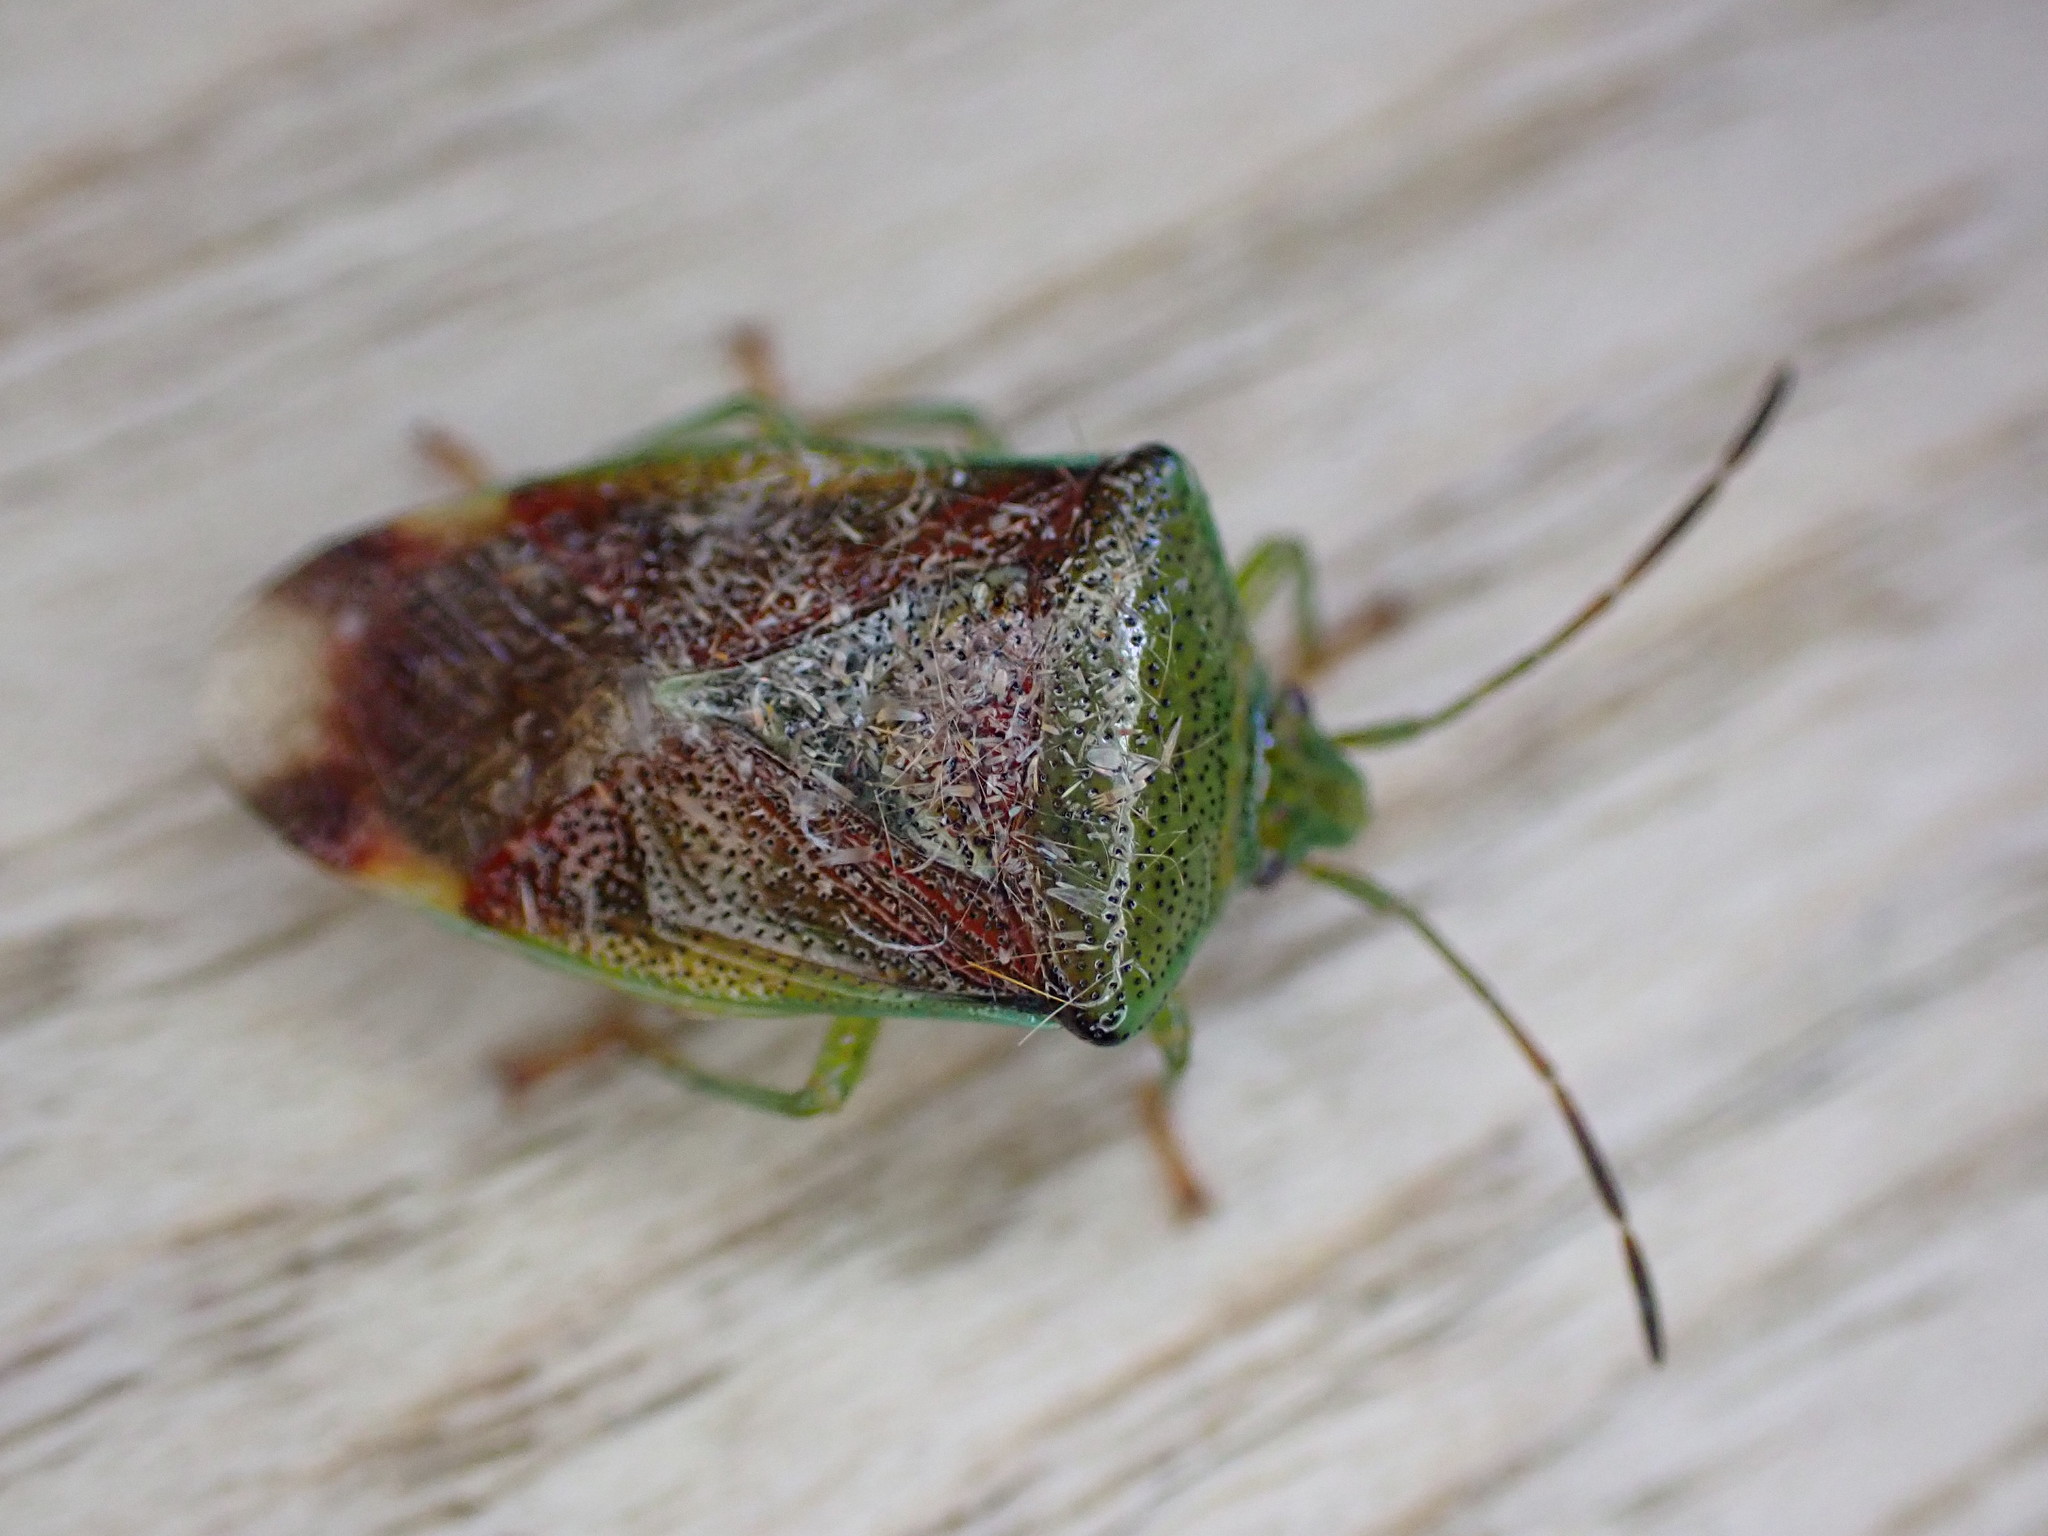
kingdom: Animalia
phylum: Arthropoda
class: Insecta
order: Hemiptera
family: Acanthosomatidae
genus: Elasmostethus
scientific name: Elasmostethus interstinctus
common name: Birch shieldbug
